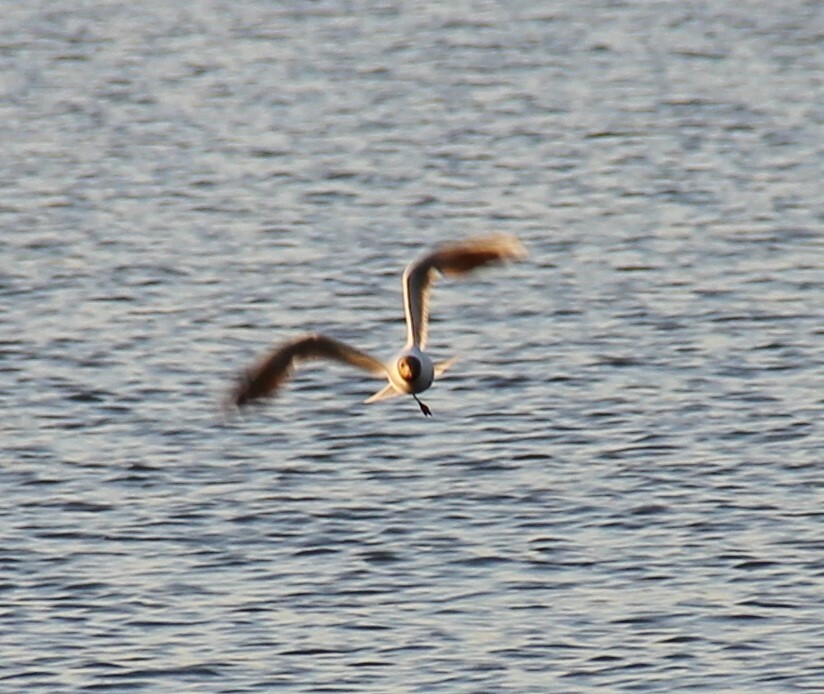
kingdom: Animalia
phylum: Chordata
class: Aves
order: Charadriiformes
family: Laridae
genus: Chroicocephalus
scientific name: Chroicocephalus ridibundus
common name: Black-headed gull
